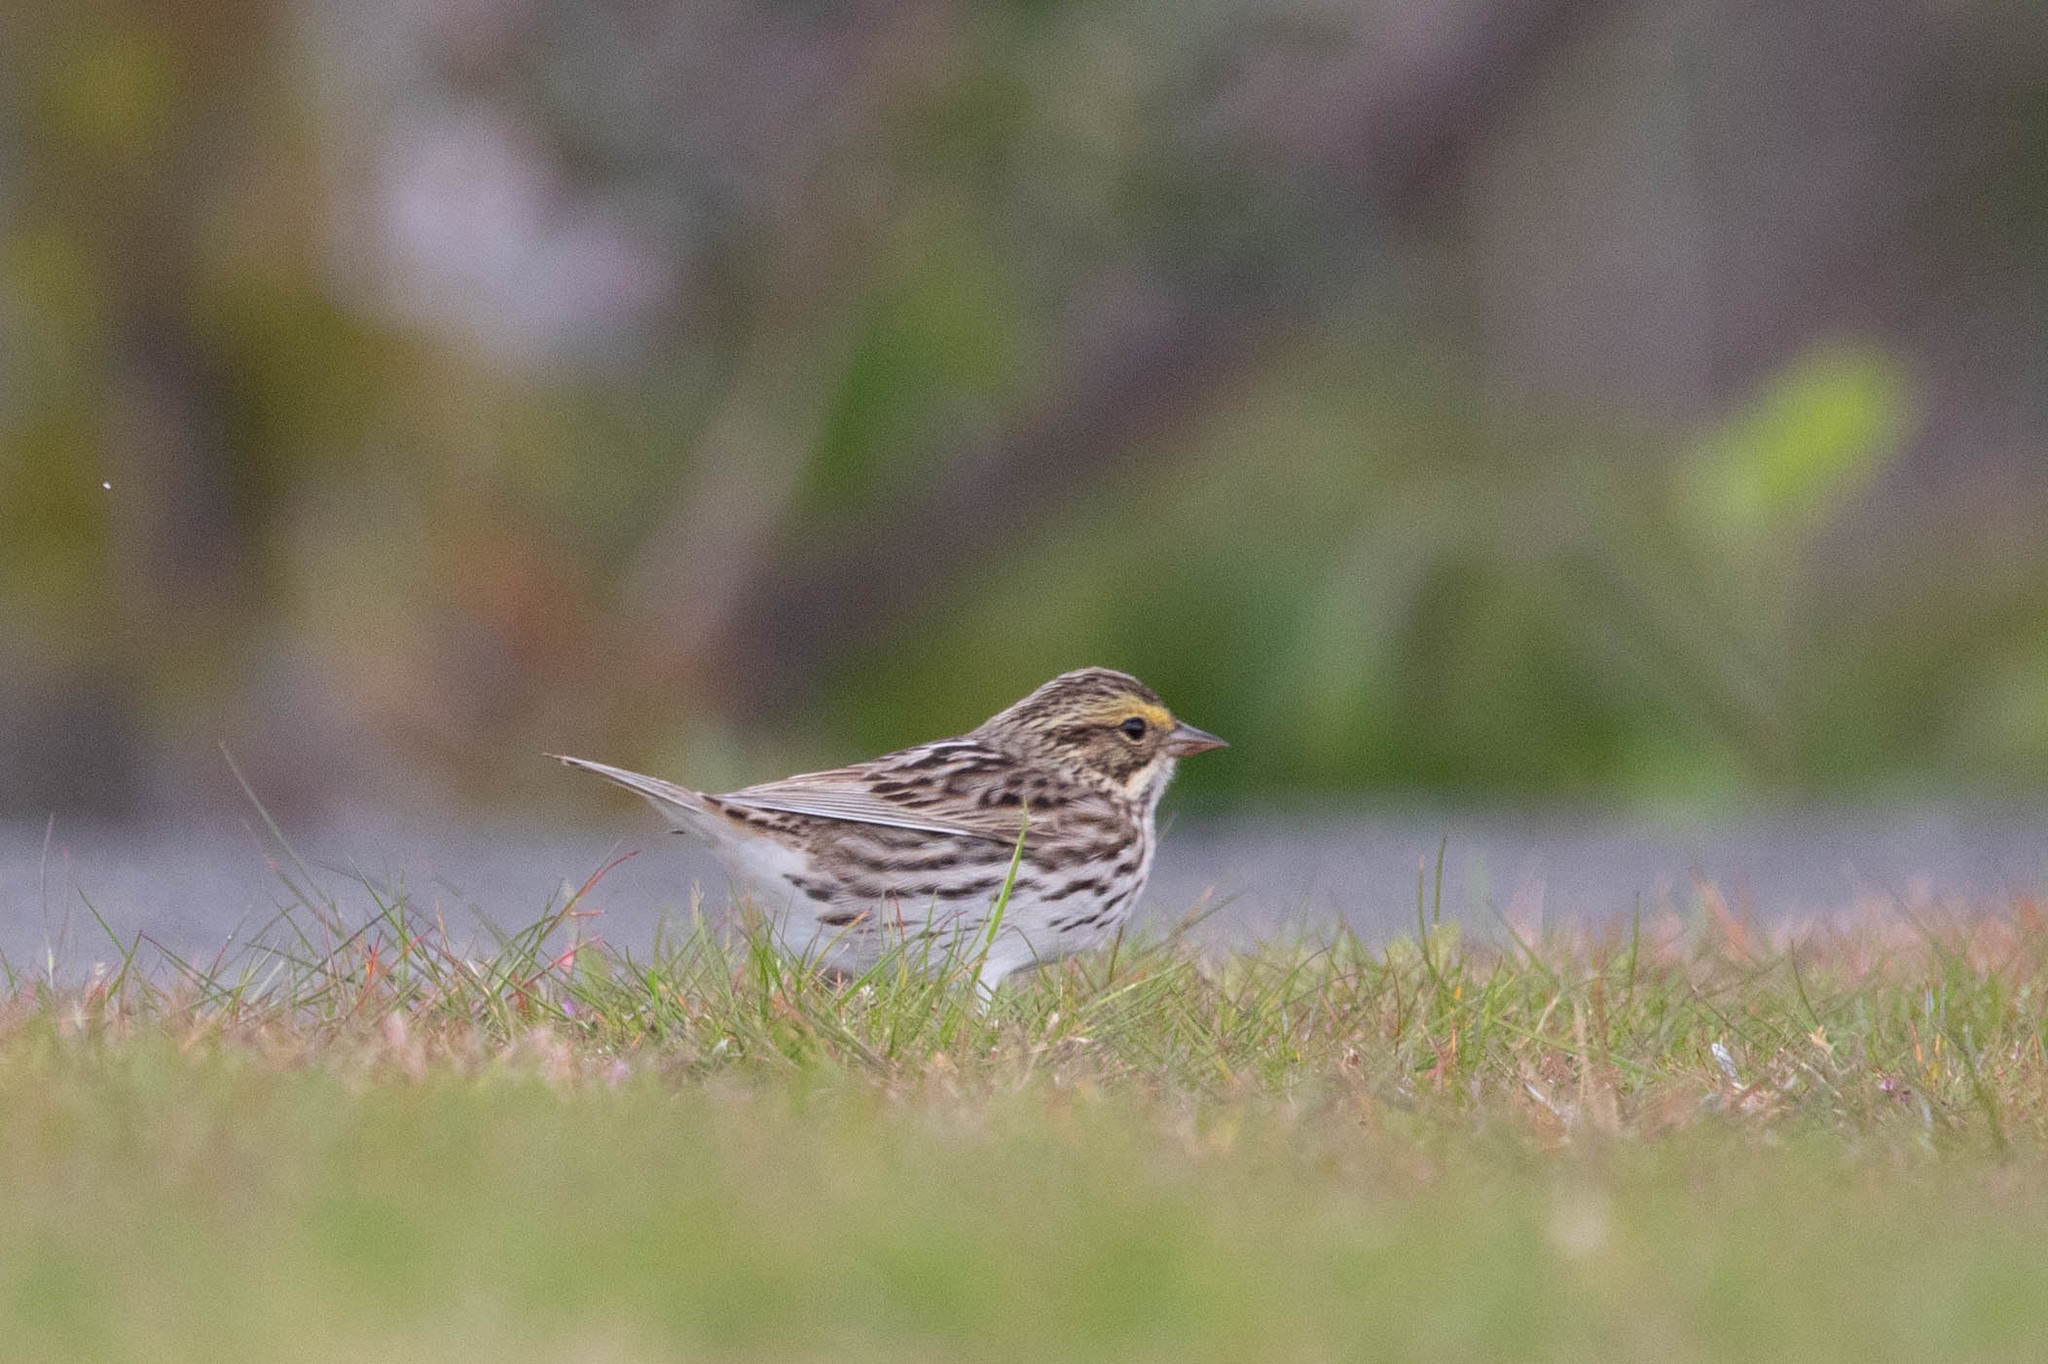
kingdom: Animalia
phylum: Chordata
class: Aves
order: Passeriformes
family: Passerellidae
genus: Passerculus
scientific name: Passerculus sandwichensis
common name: Savannah sparrow
